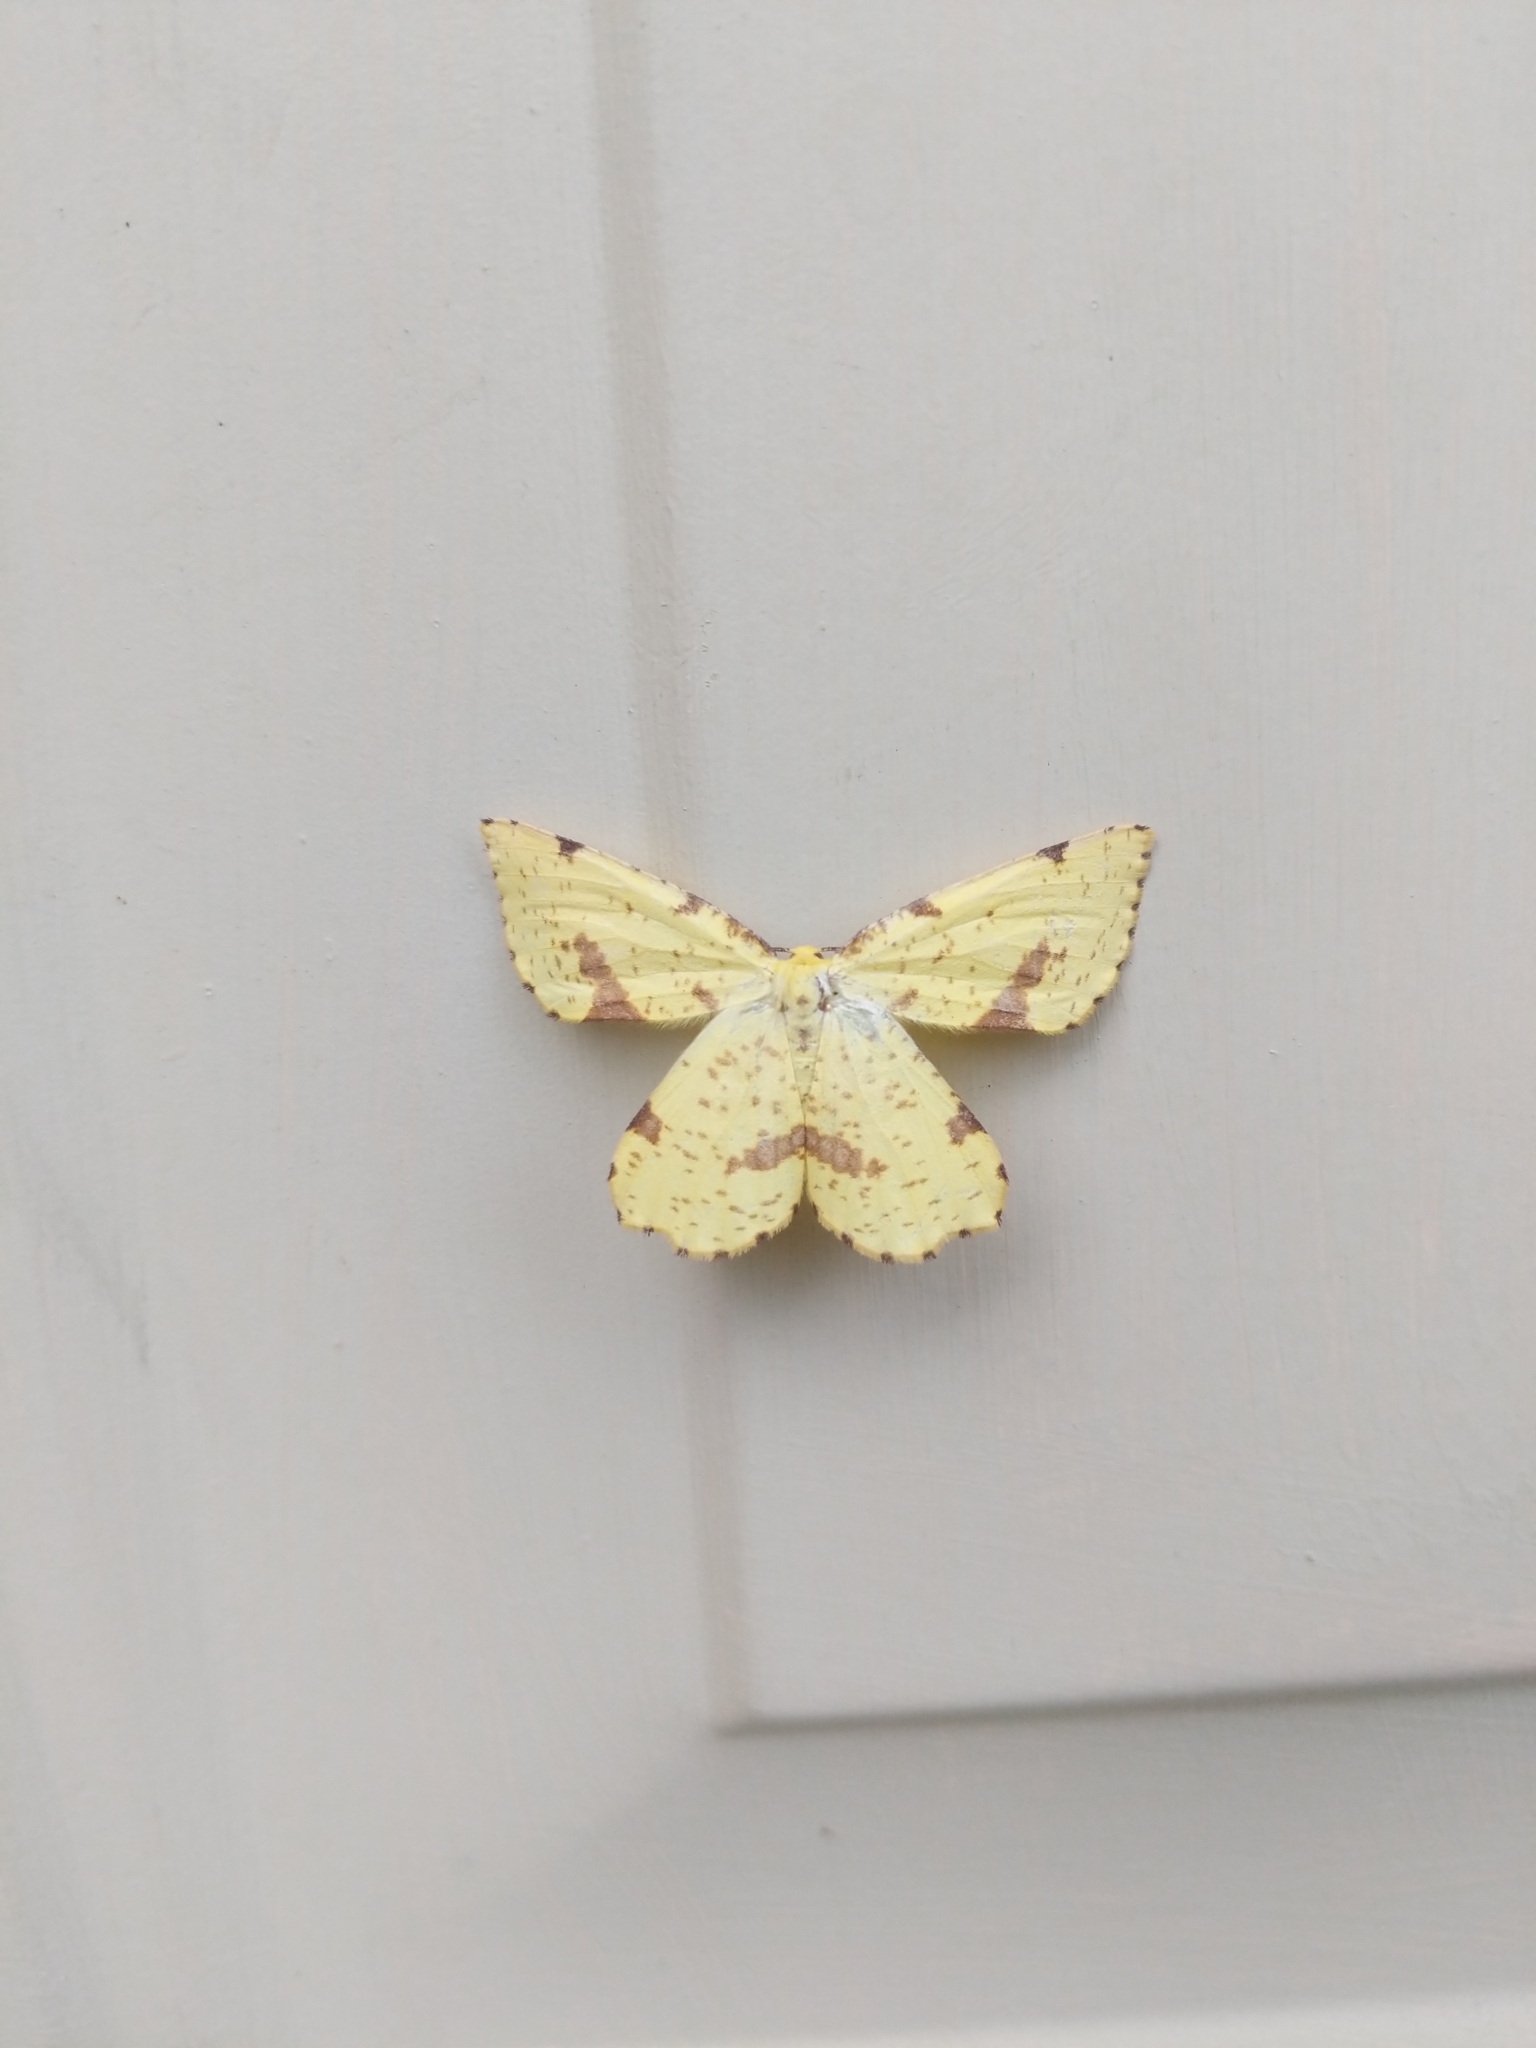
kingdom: Animalia
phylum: Arthropoda
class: Insecta
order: Lepidoptera
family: Geometridae
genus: Xanthotype
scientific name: Xanthotype
